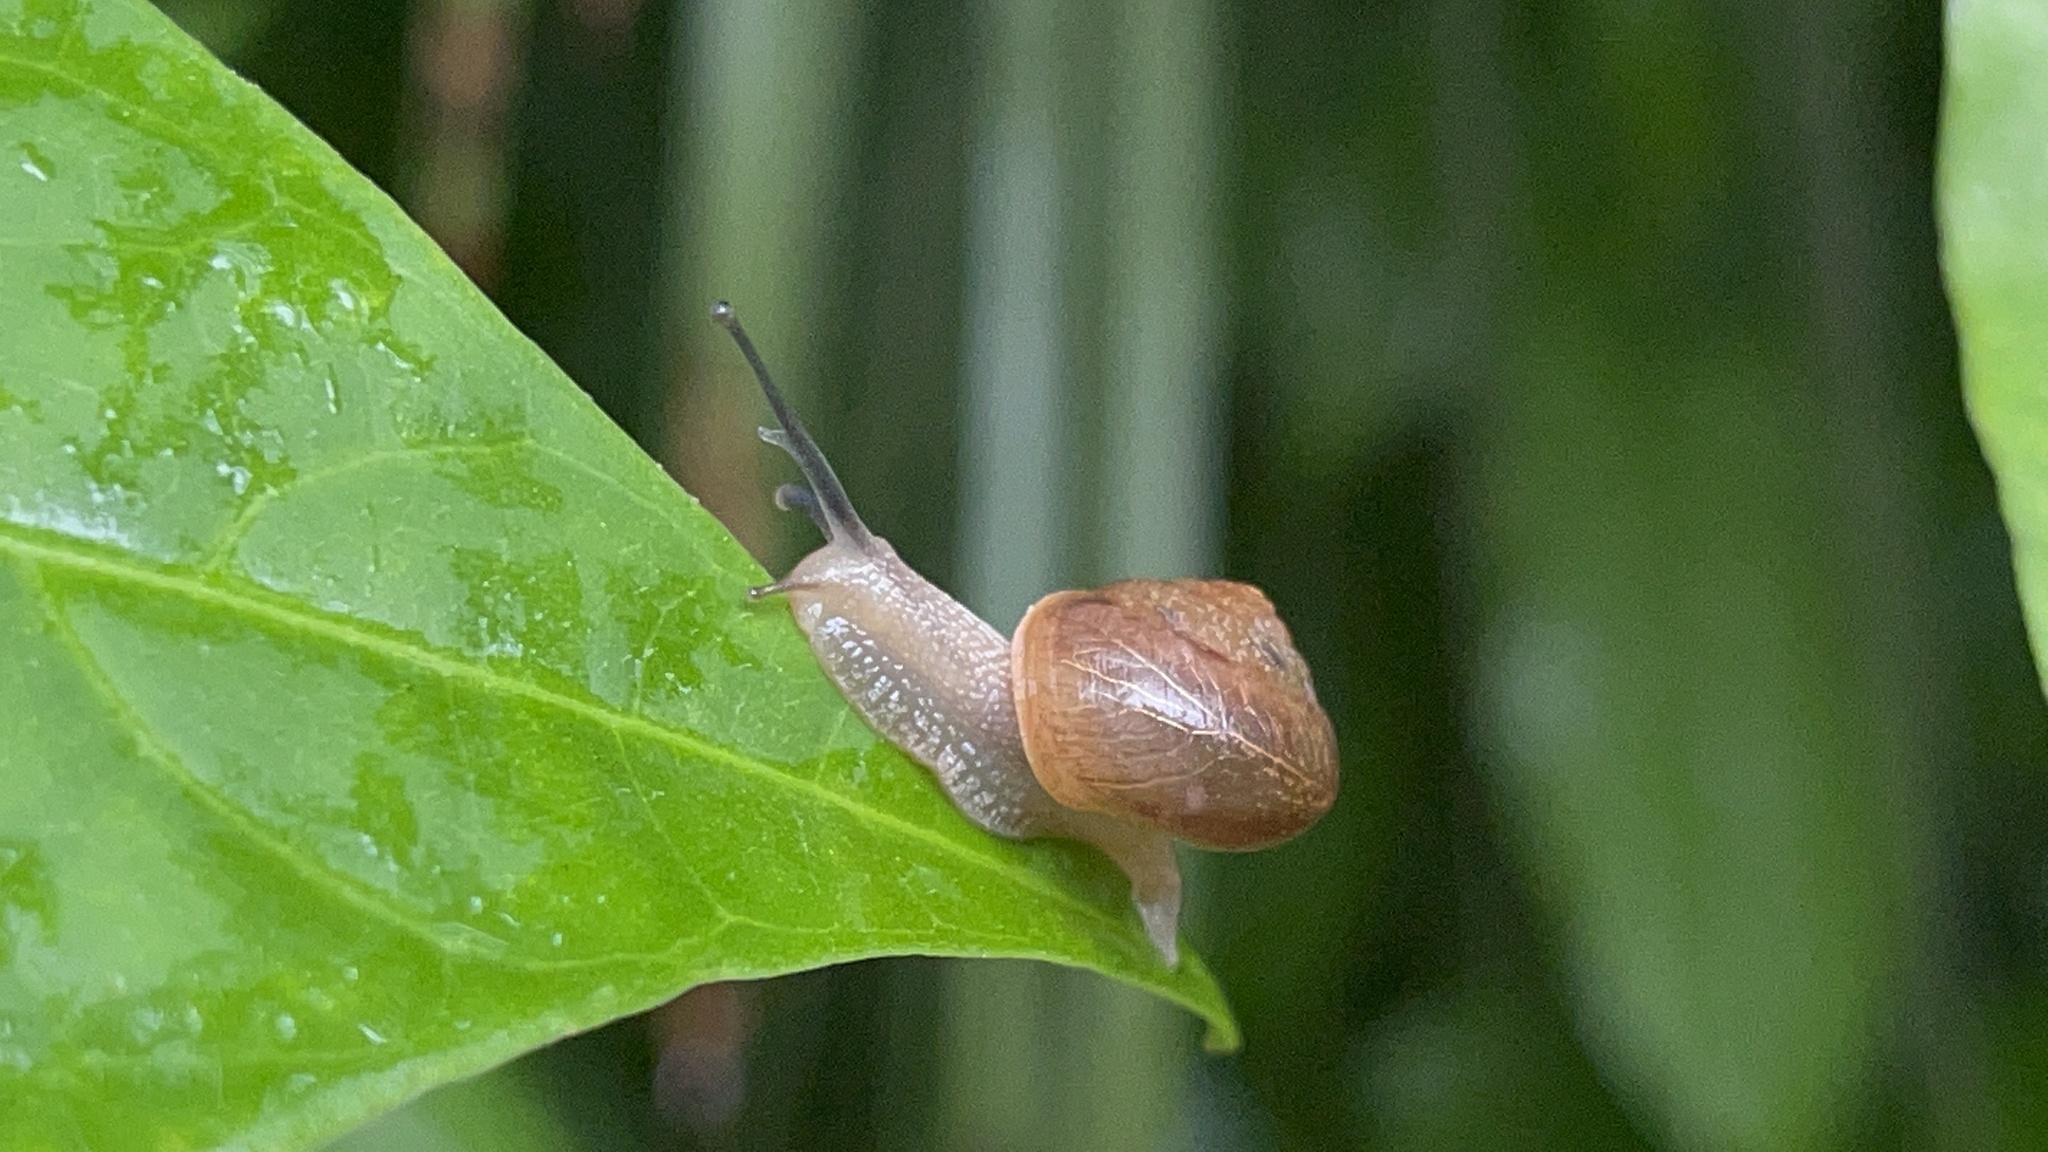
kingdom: Animalia
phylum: Mollusca
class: Gastropoda
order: Stylommatophora
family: Camaenidae
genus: Bradybaena
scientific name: Bradybaena similaris
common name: Asian trampsnail
